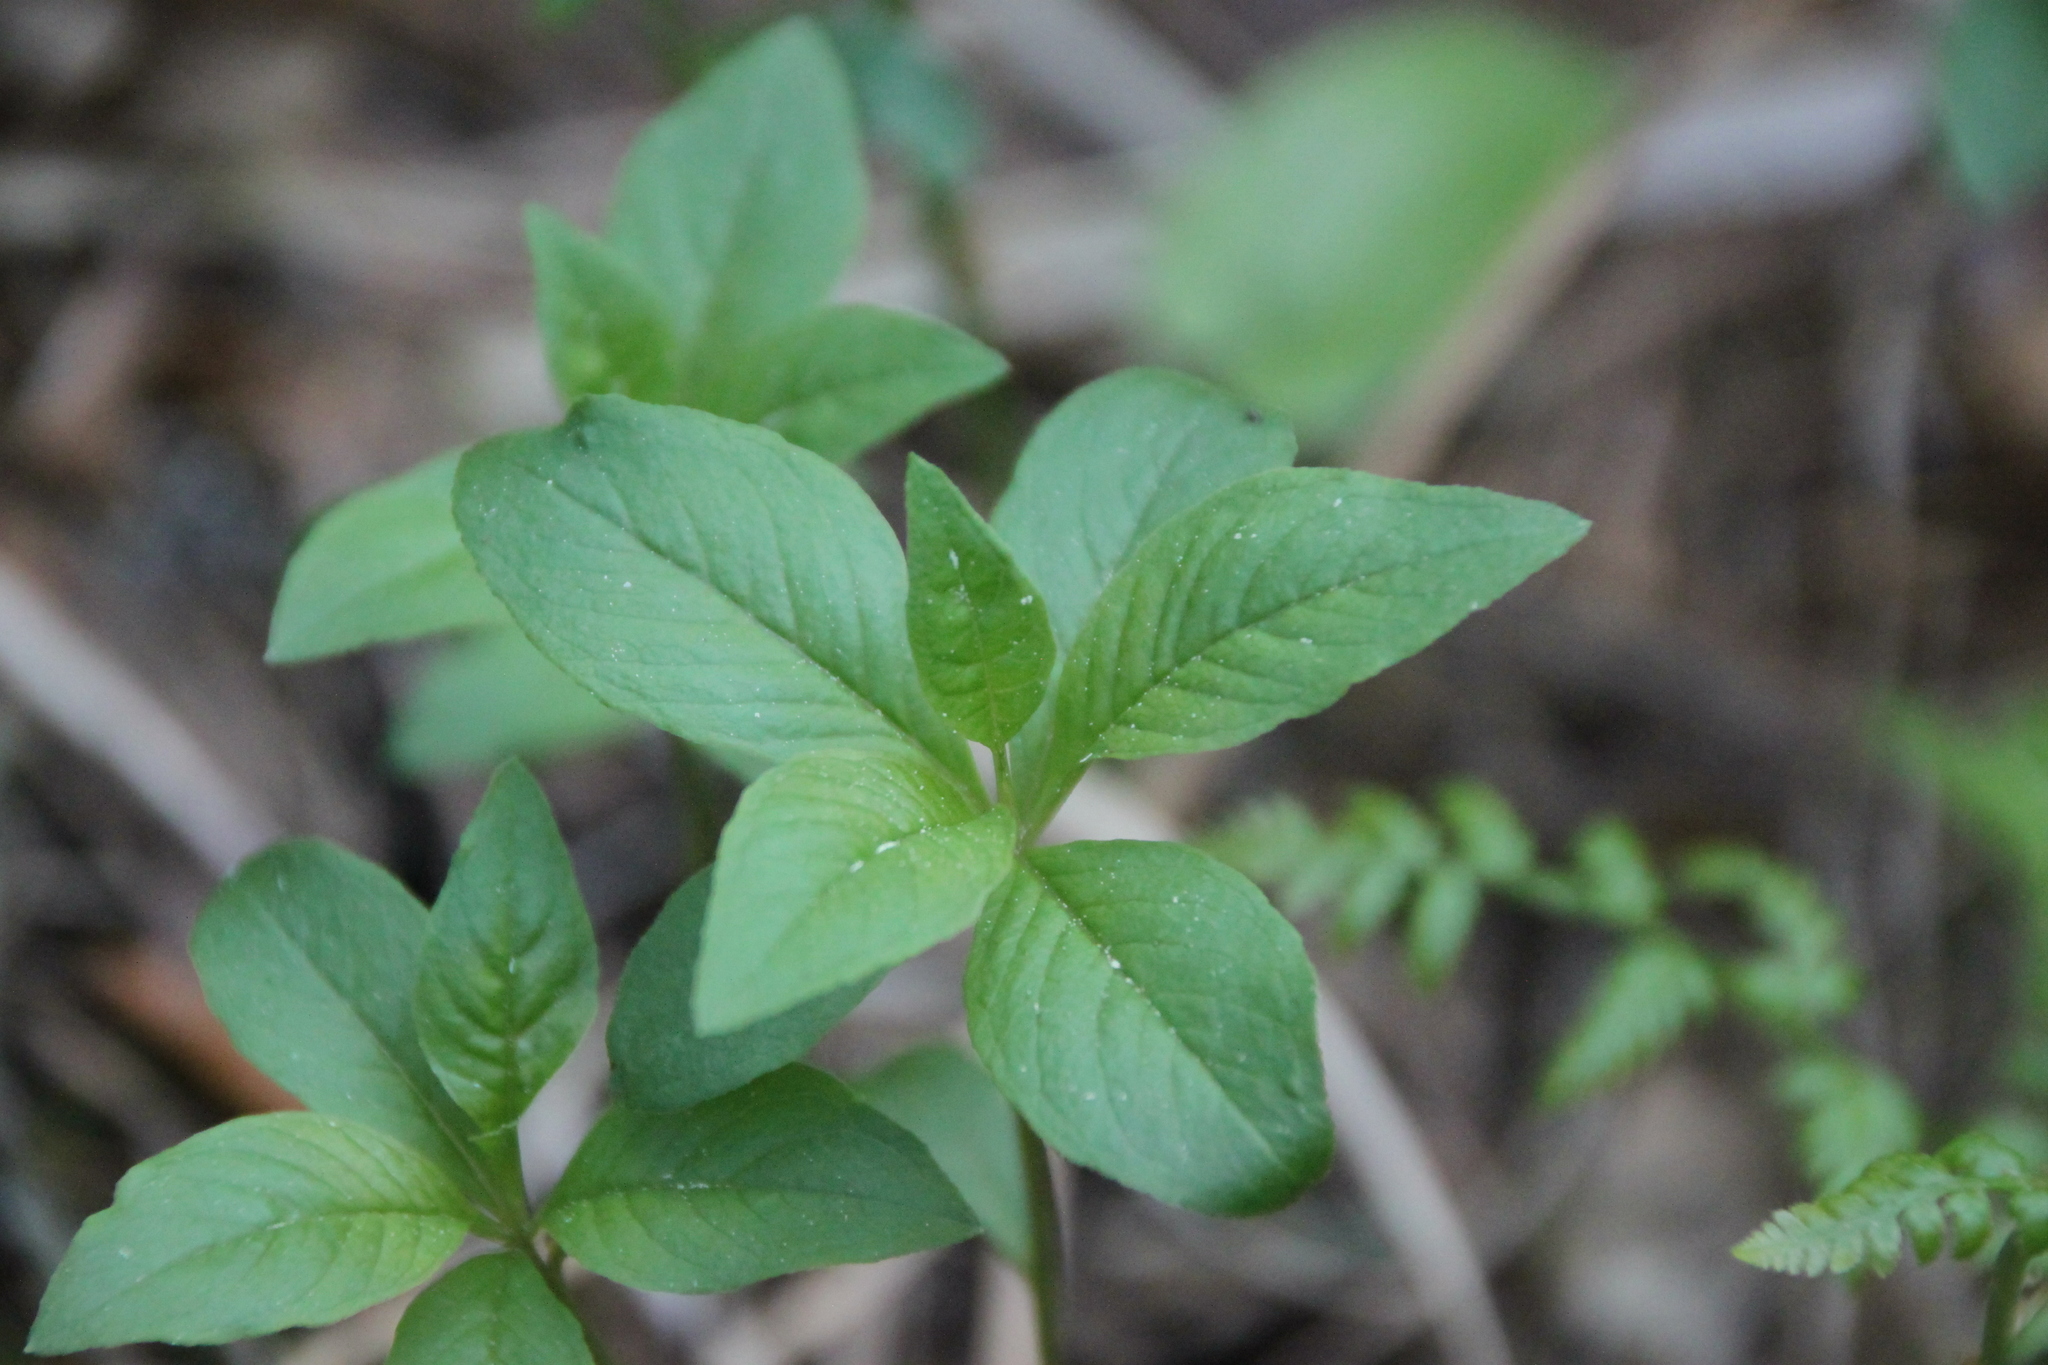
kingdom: Plantae
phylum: Tracheophyta
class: Magnoliopsida
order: Ericales
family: Primulaceae
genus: Lysimachia
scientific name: Lysimachia europaea
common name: Arctic starflower
